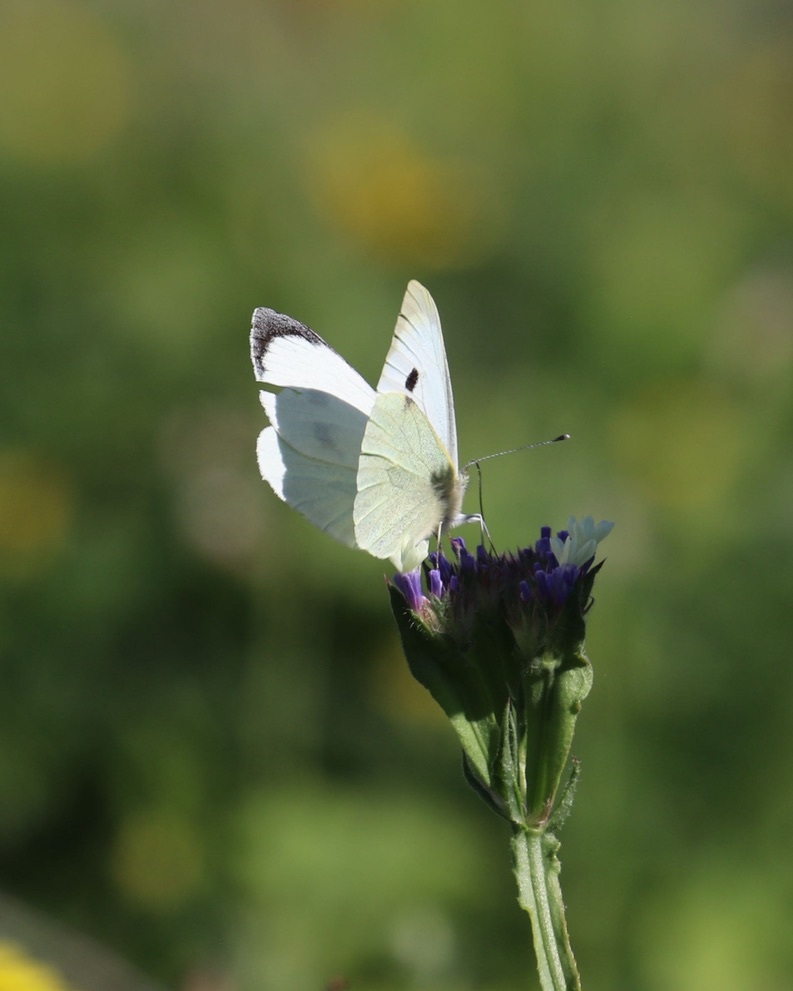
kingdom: Animalia
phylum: Arthropoda
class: Insecta
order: Lepidoptera
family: Pieridae
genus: Pieris
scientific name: Pieris brassicae
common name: Large white
